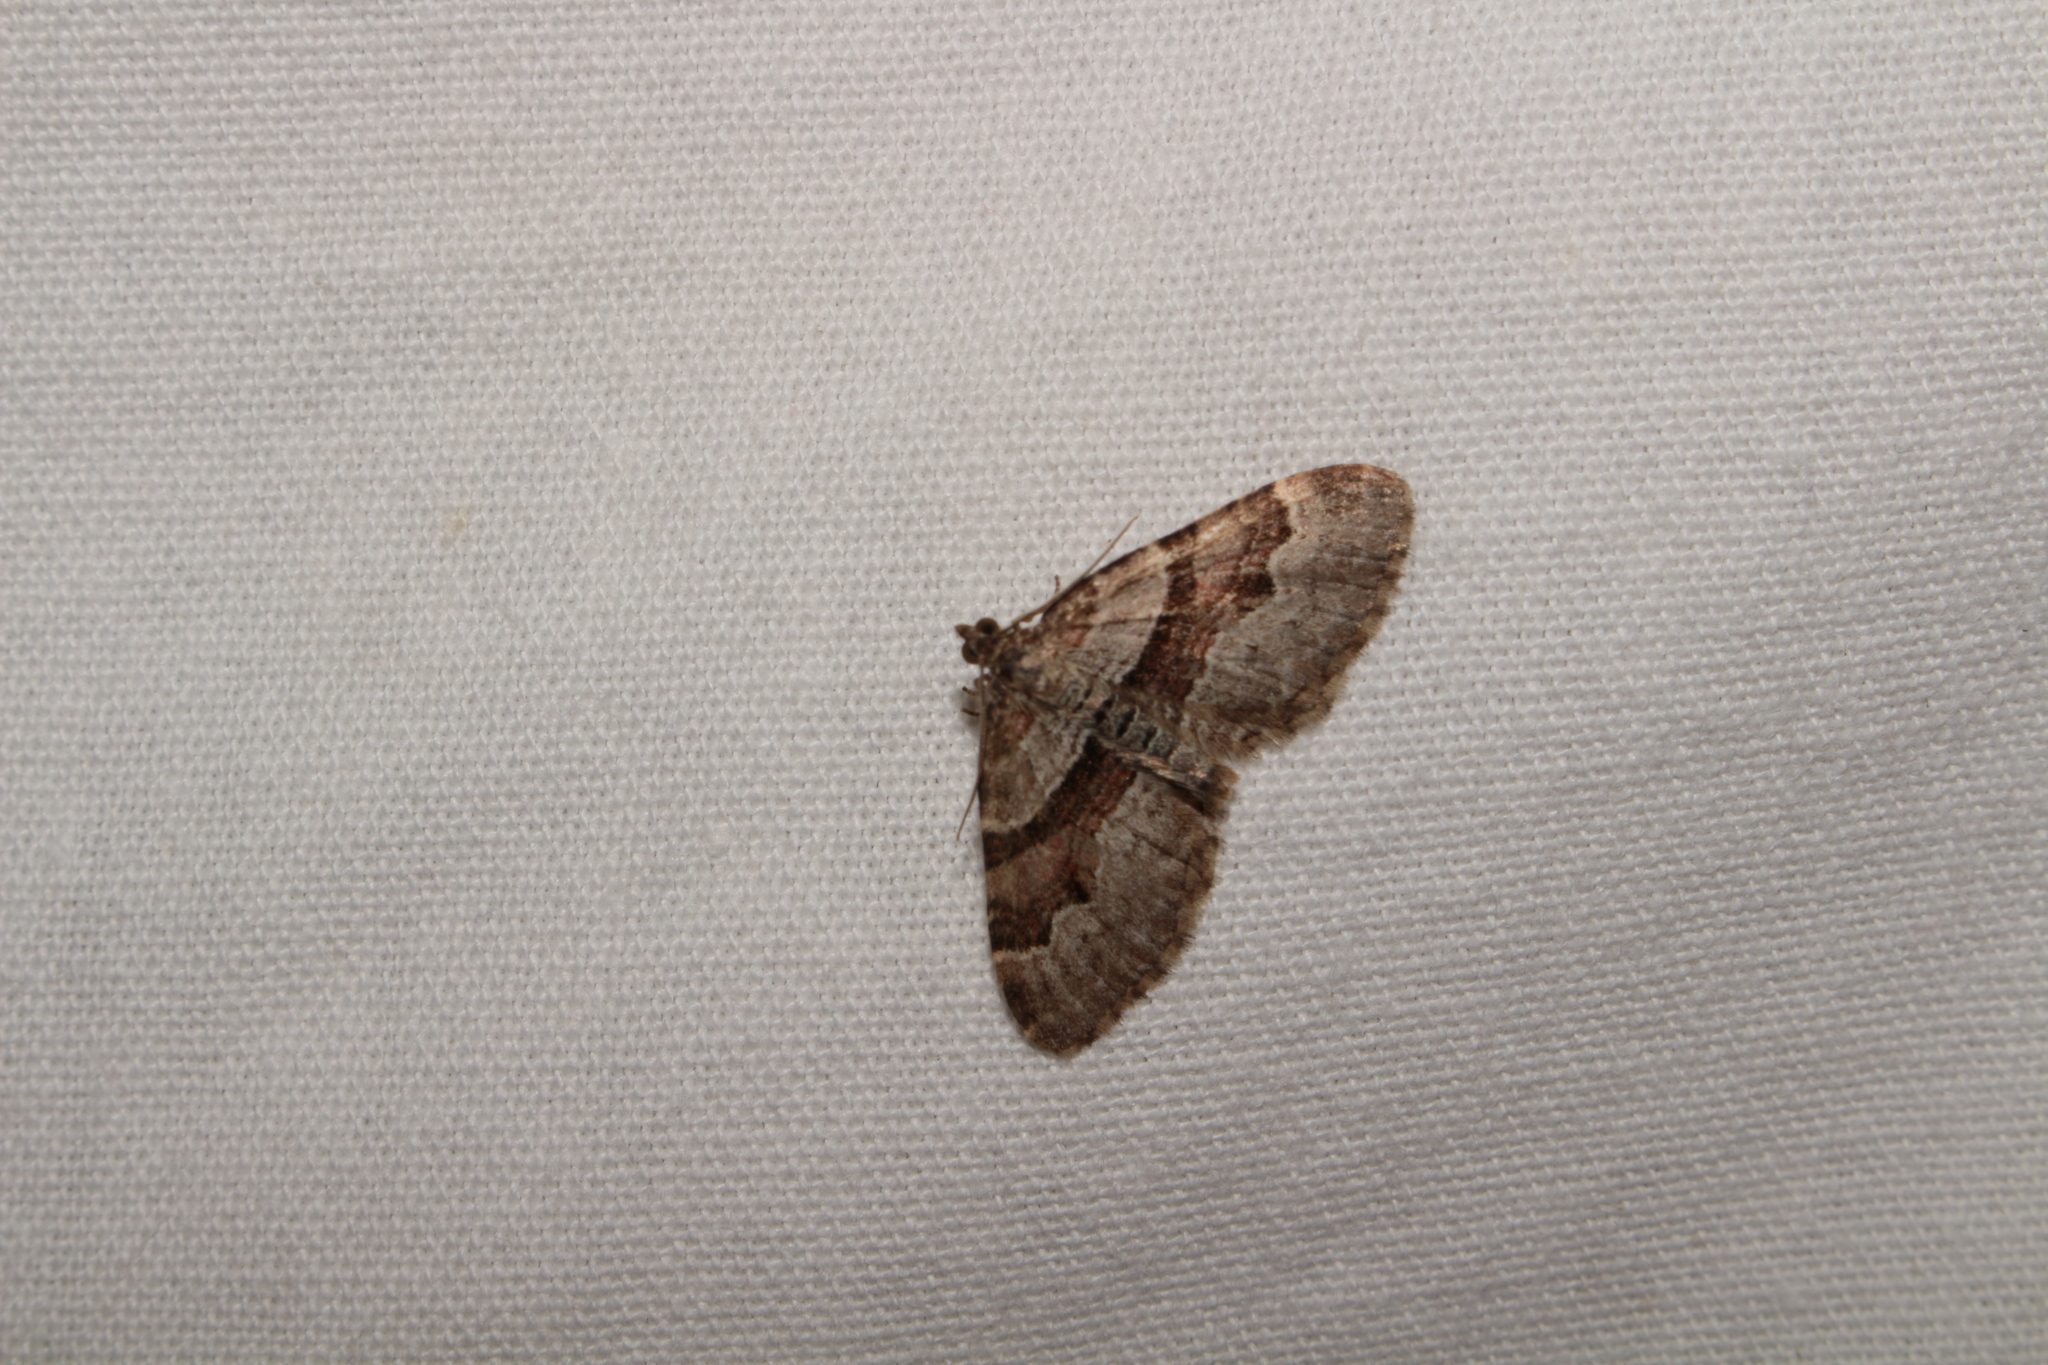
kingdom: Animalia
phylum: Arthropoda
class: Insecta
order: Lepidoptera
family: Geometridae
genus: Xanthorhoe
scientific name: Xanthorhoe designata
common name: Flame carpet
